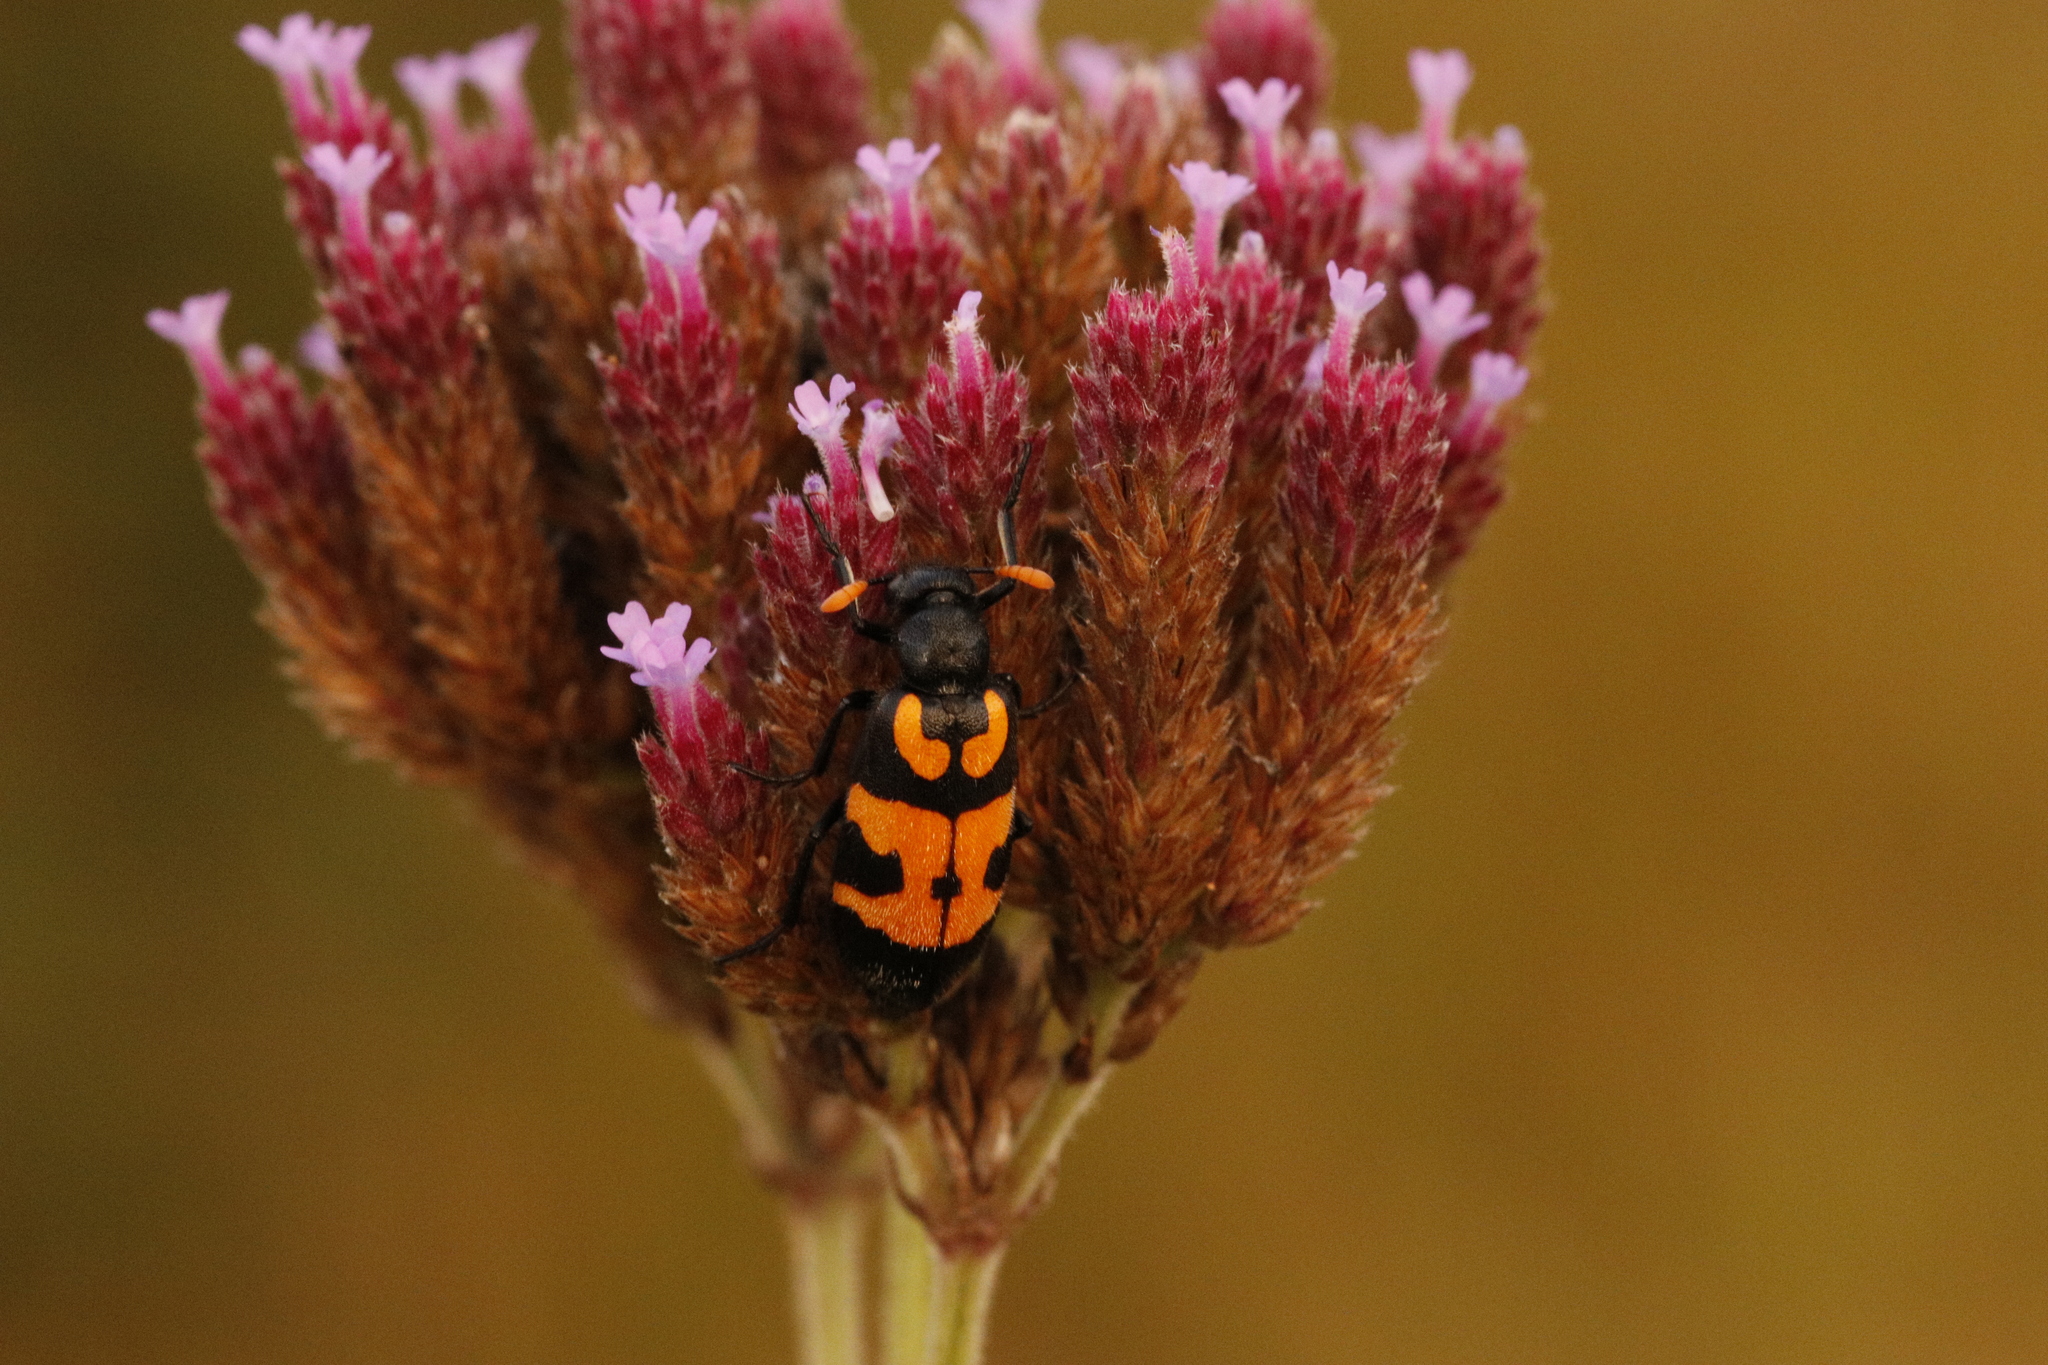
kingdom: Animalia
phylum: Arthropoda
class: Insecta
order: Coleoptera
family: Meloidae
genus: Meloe
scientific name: Meloe lunata
